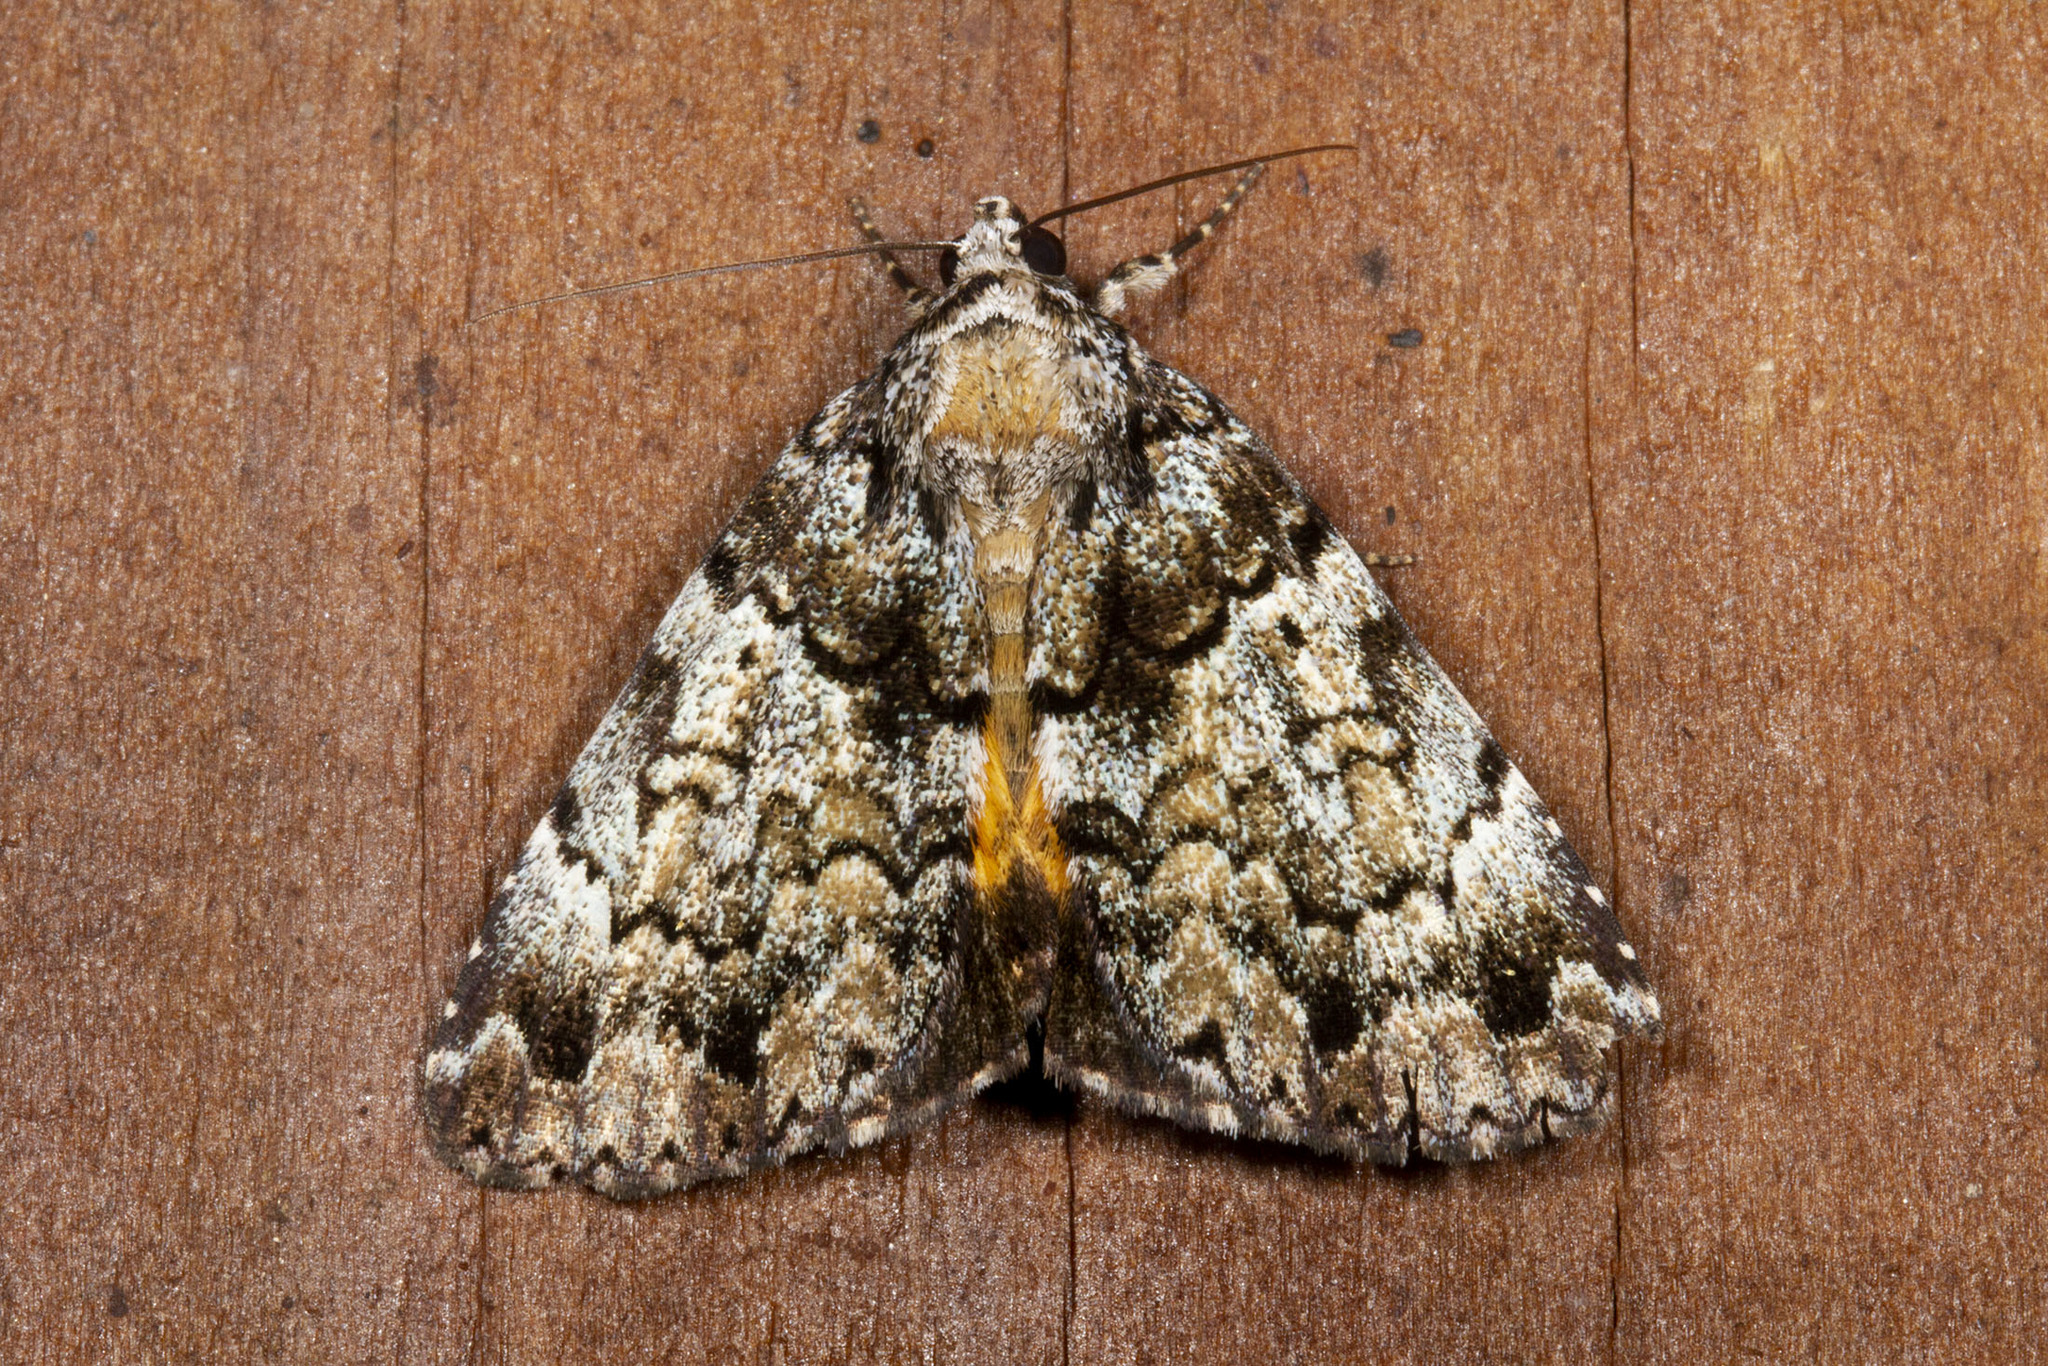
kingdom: Animalia
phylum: Arthropoda
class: Insecta
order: Lepidoptera
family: Erebidae
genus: Allotria
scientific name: Allotria elonympha
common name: False underwing
